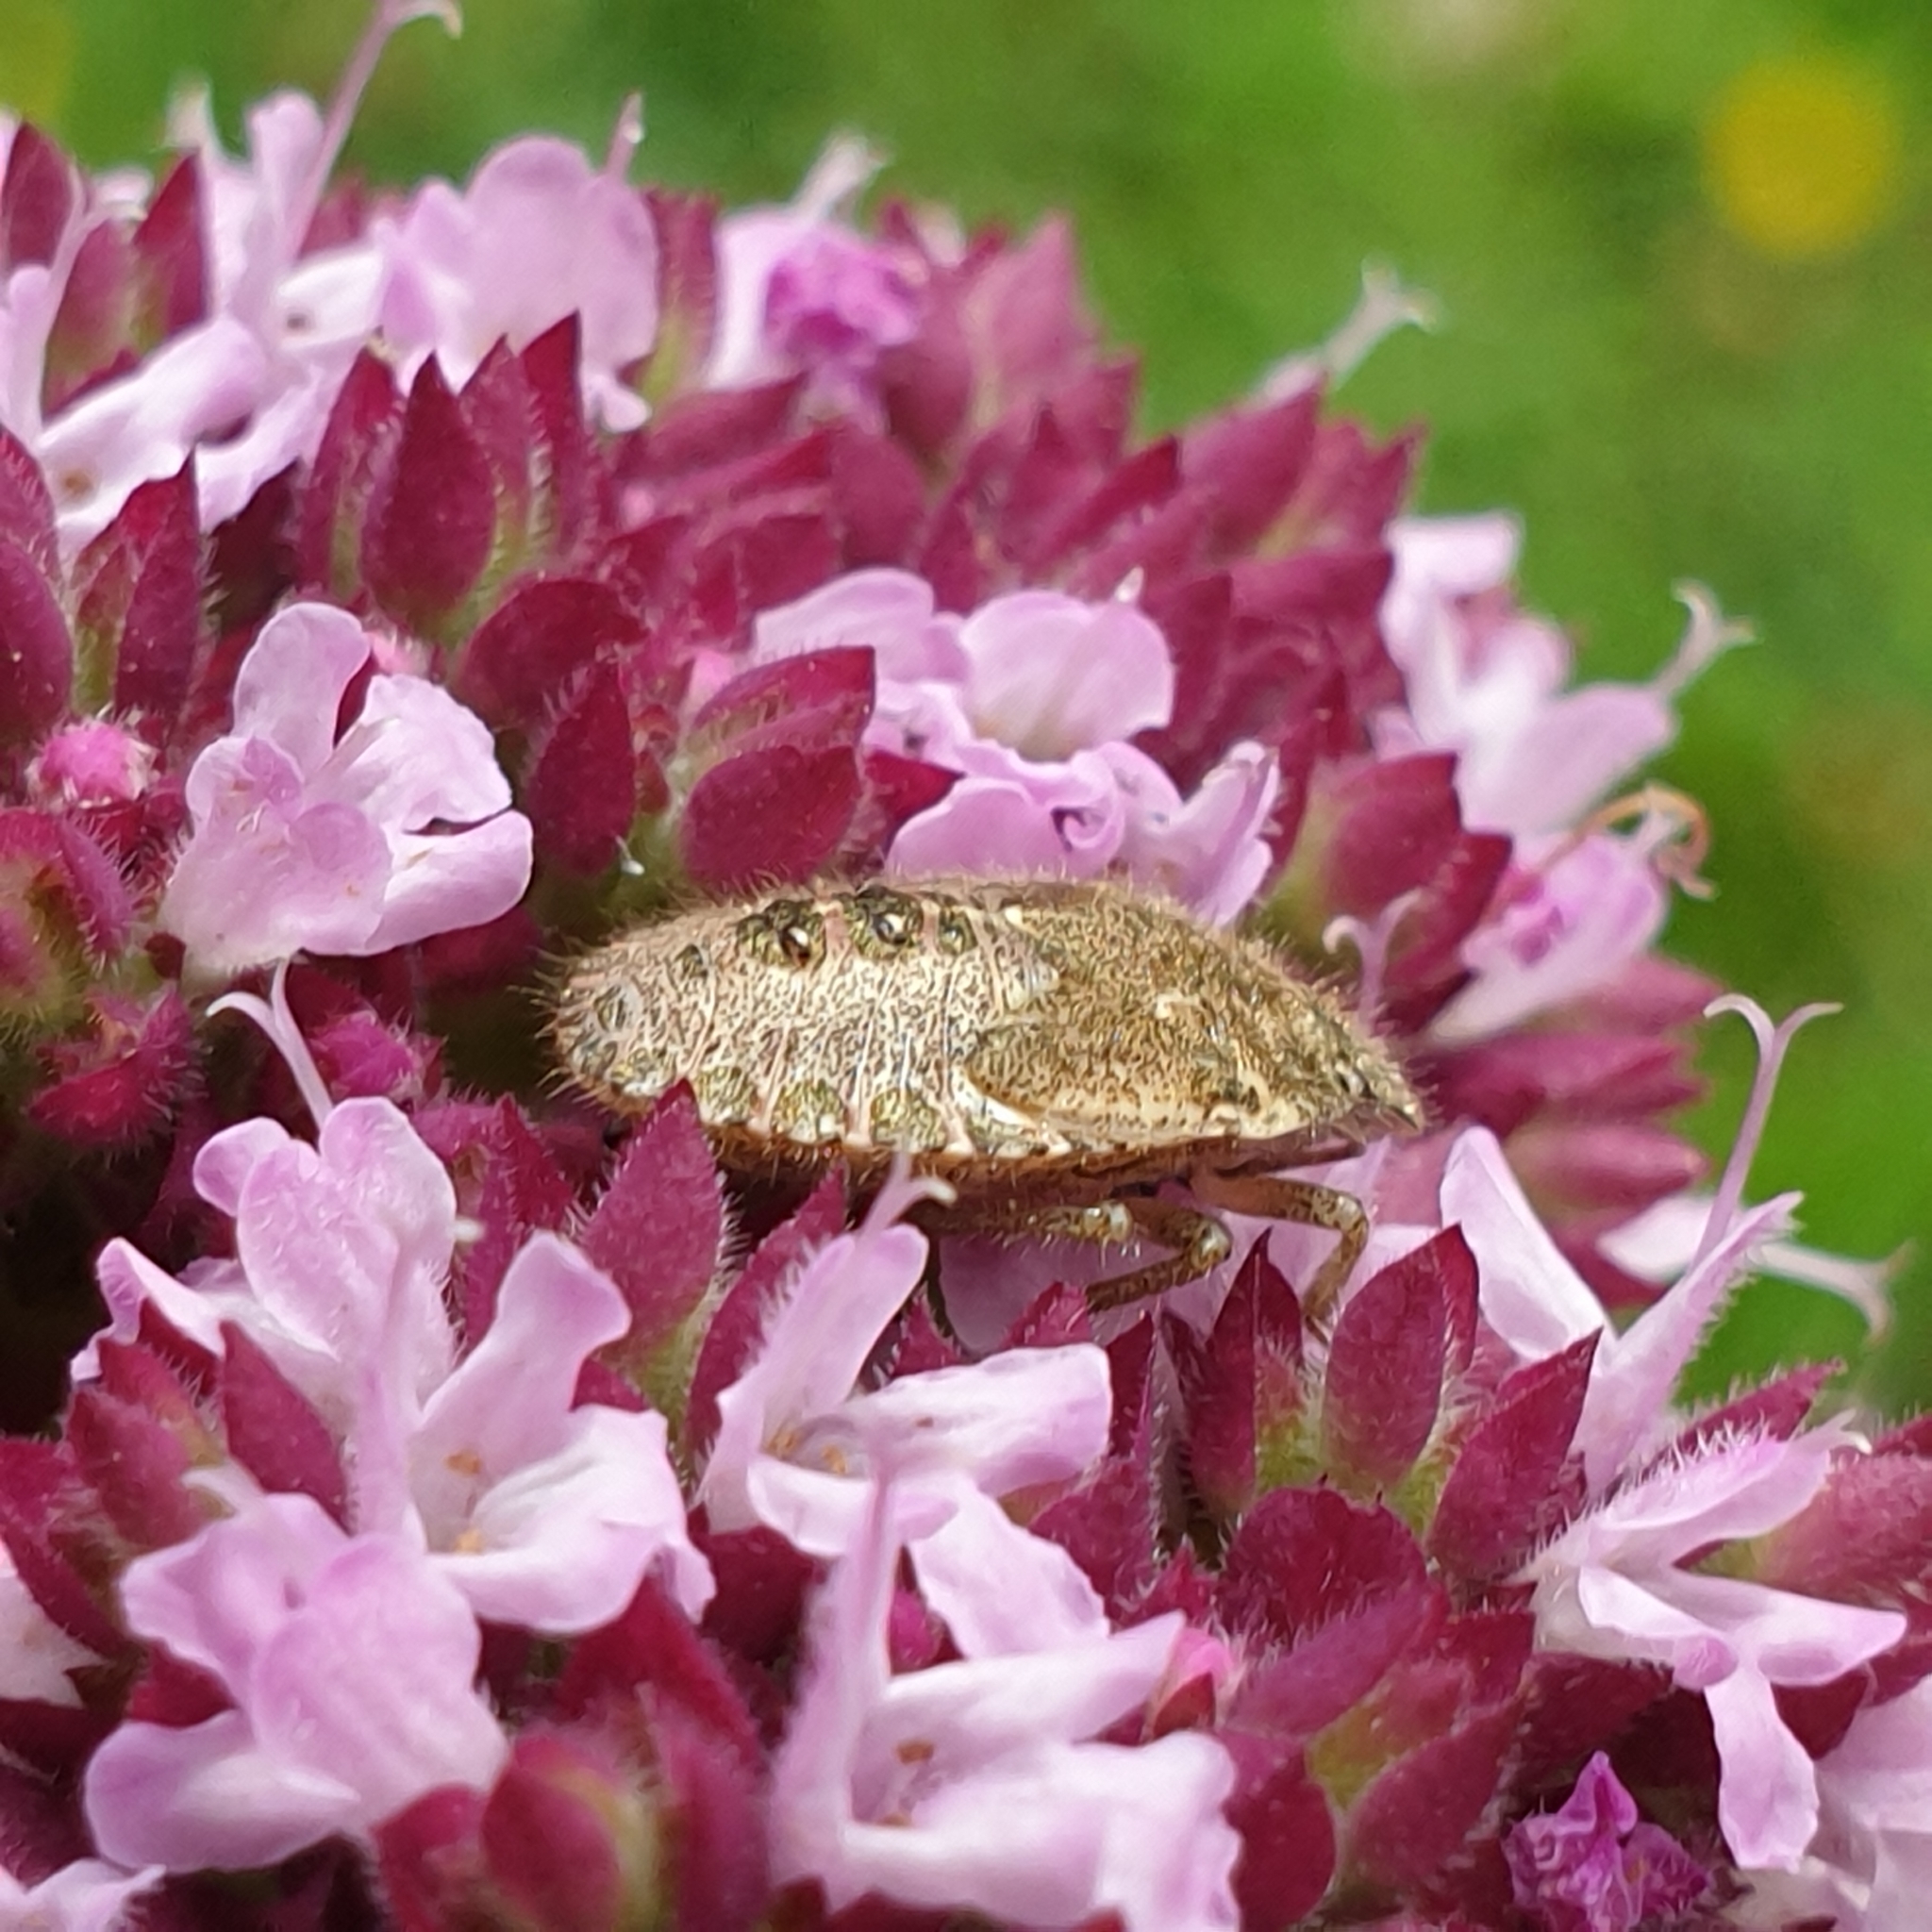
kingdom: Animalia
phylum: Arthropoda
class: Insecta
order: Hemiptera
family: Pentatomidae
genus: Dolycoris
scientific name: Dolycoris baccarum
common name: Sloe bug
